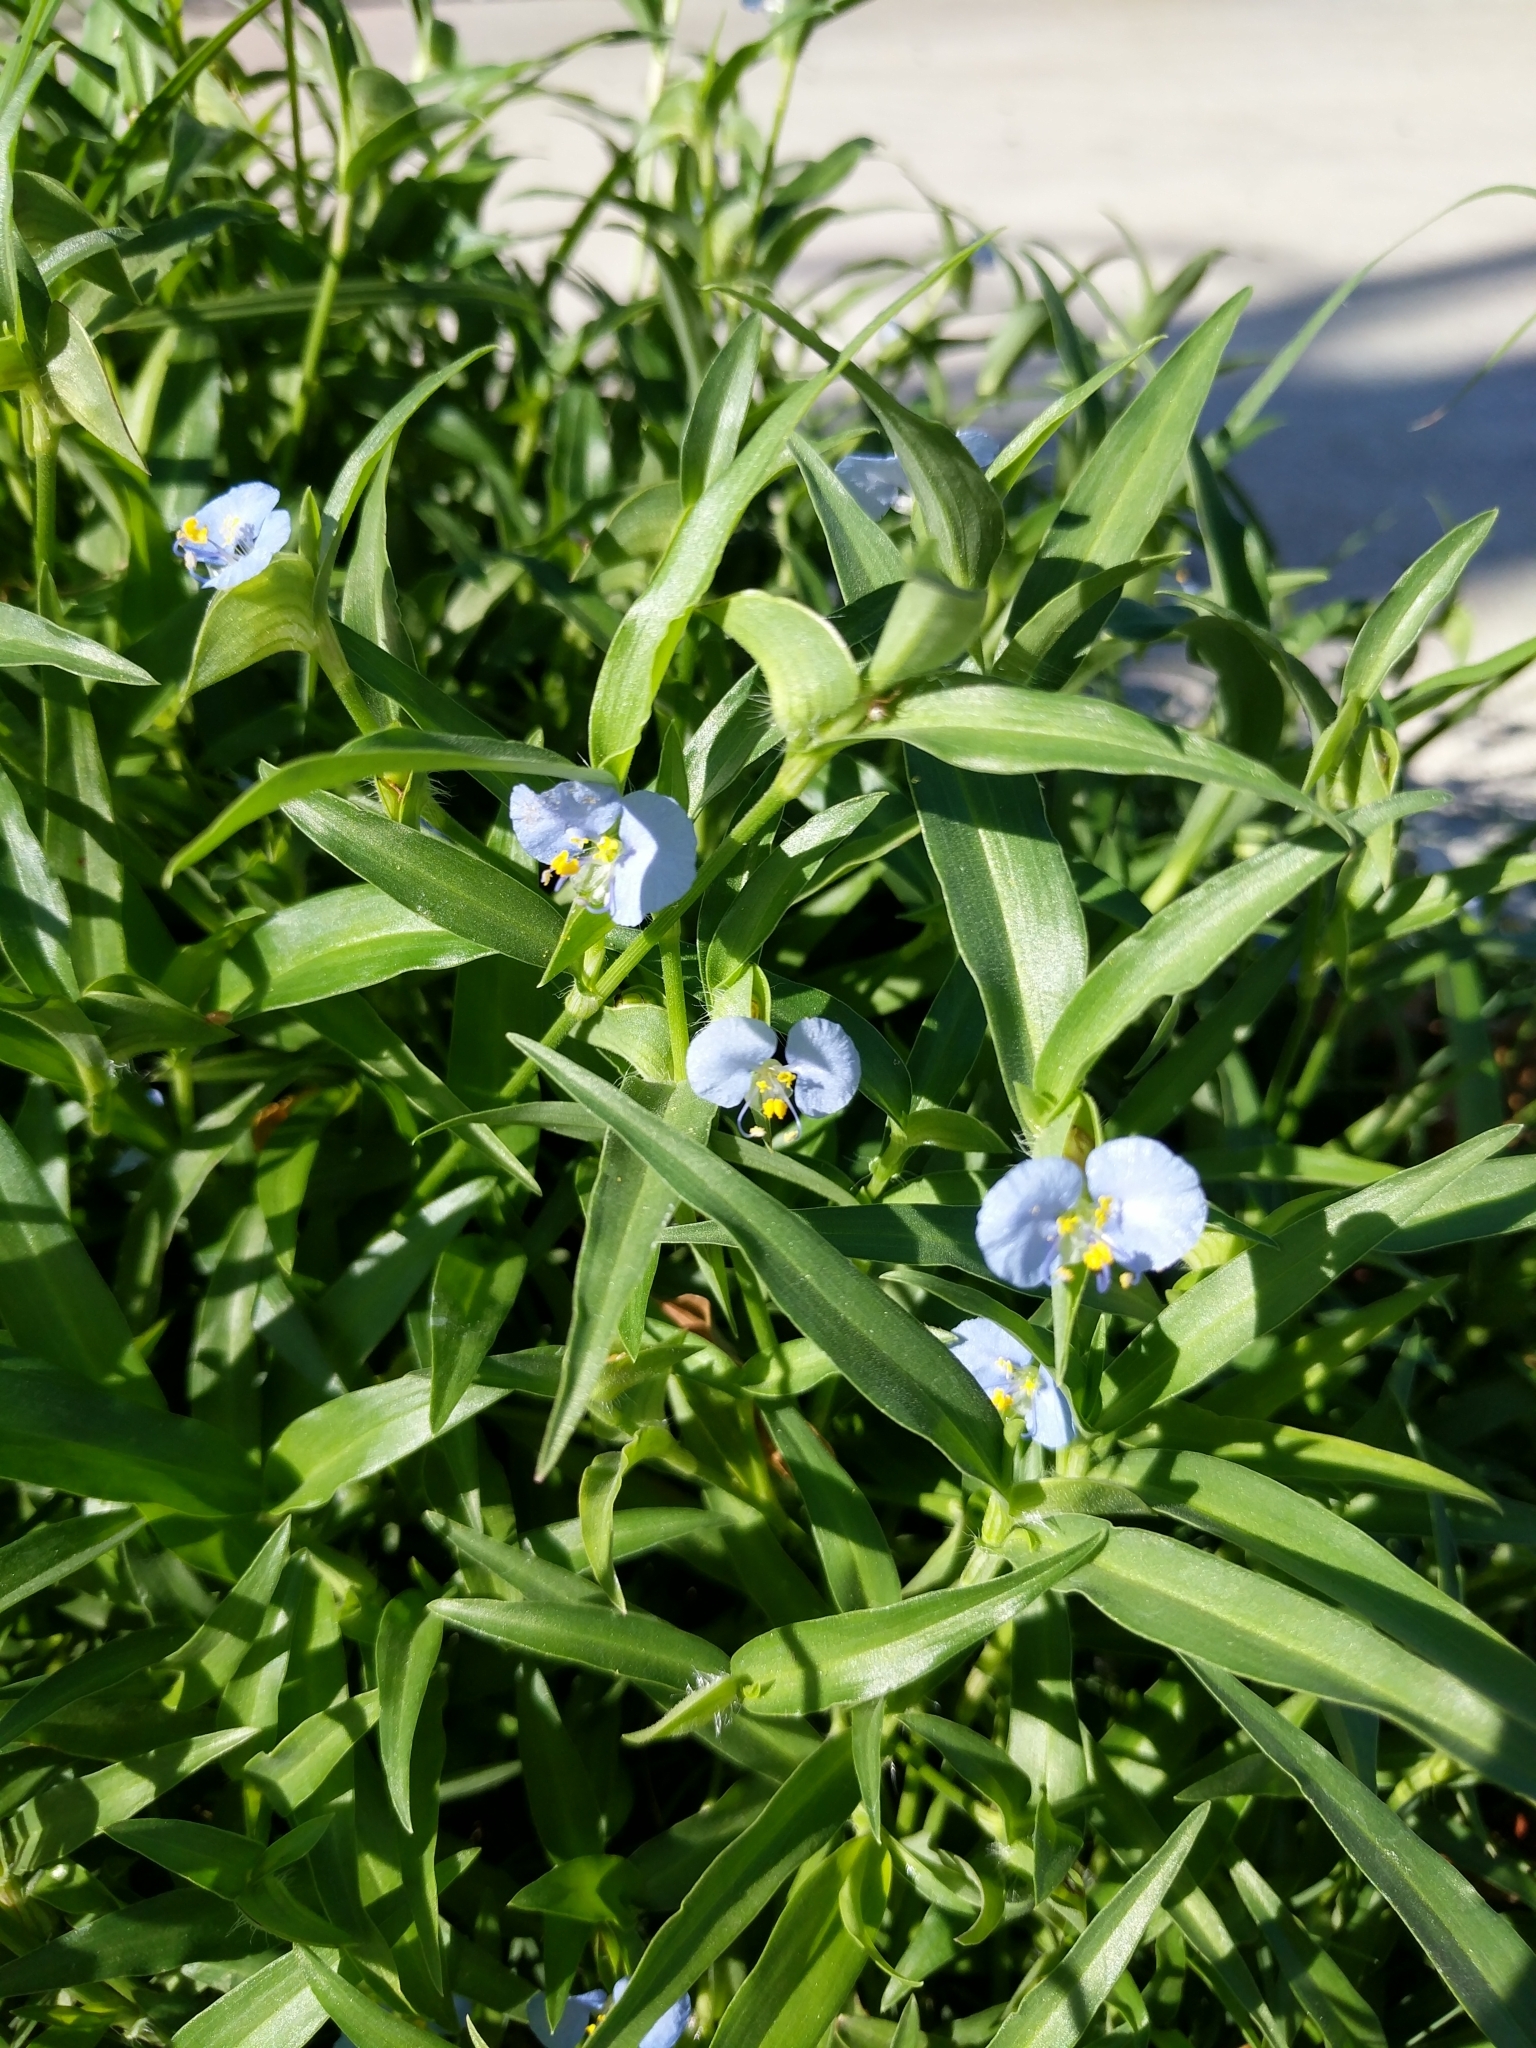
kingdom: Plantae
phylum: Tracheophyta
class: Liliopsida
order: Commelinales
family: Commelinaceae
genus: Commelina
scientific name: Commelina erecta
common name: Blousel blommetjie
